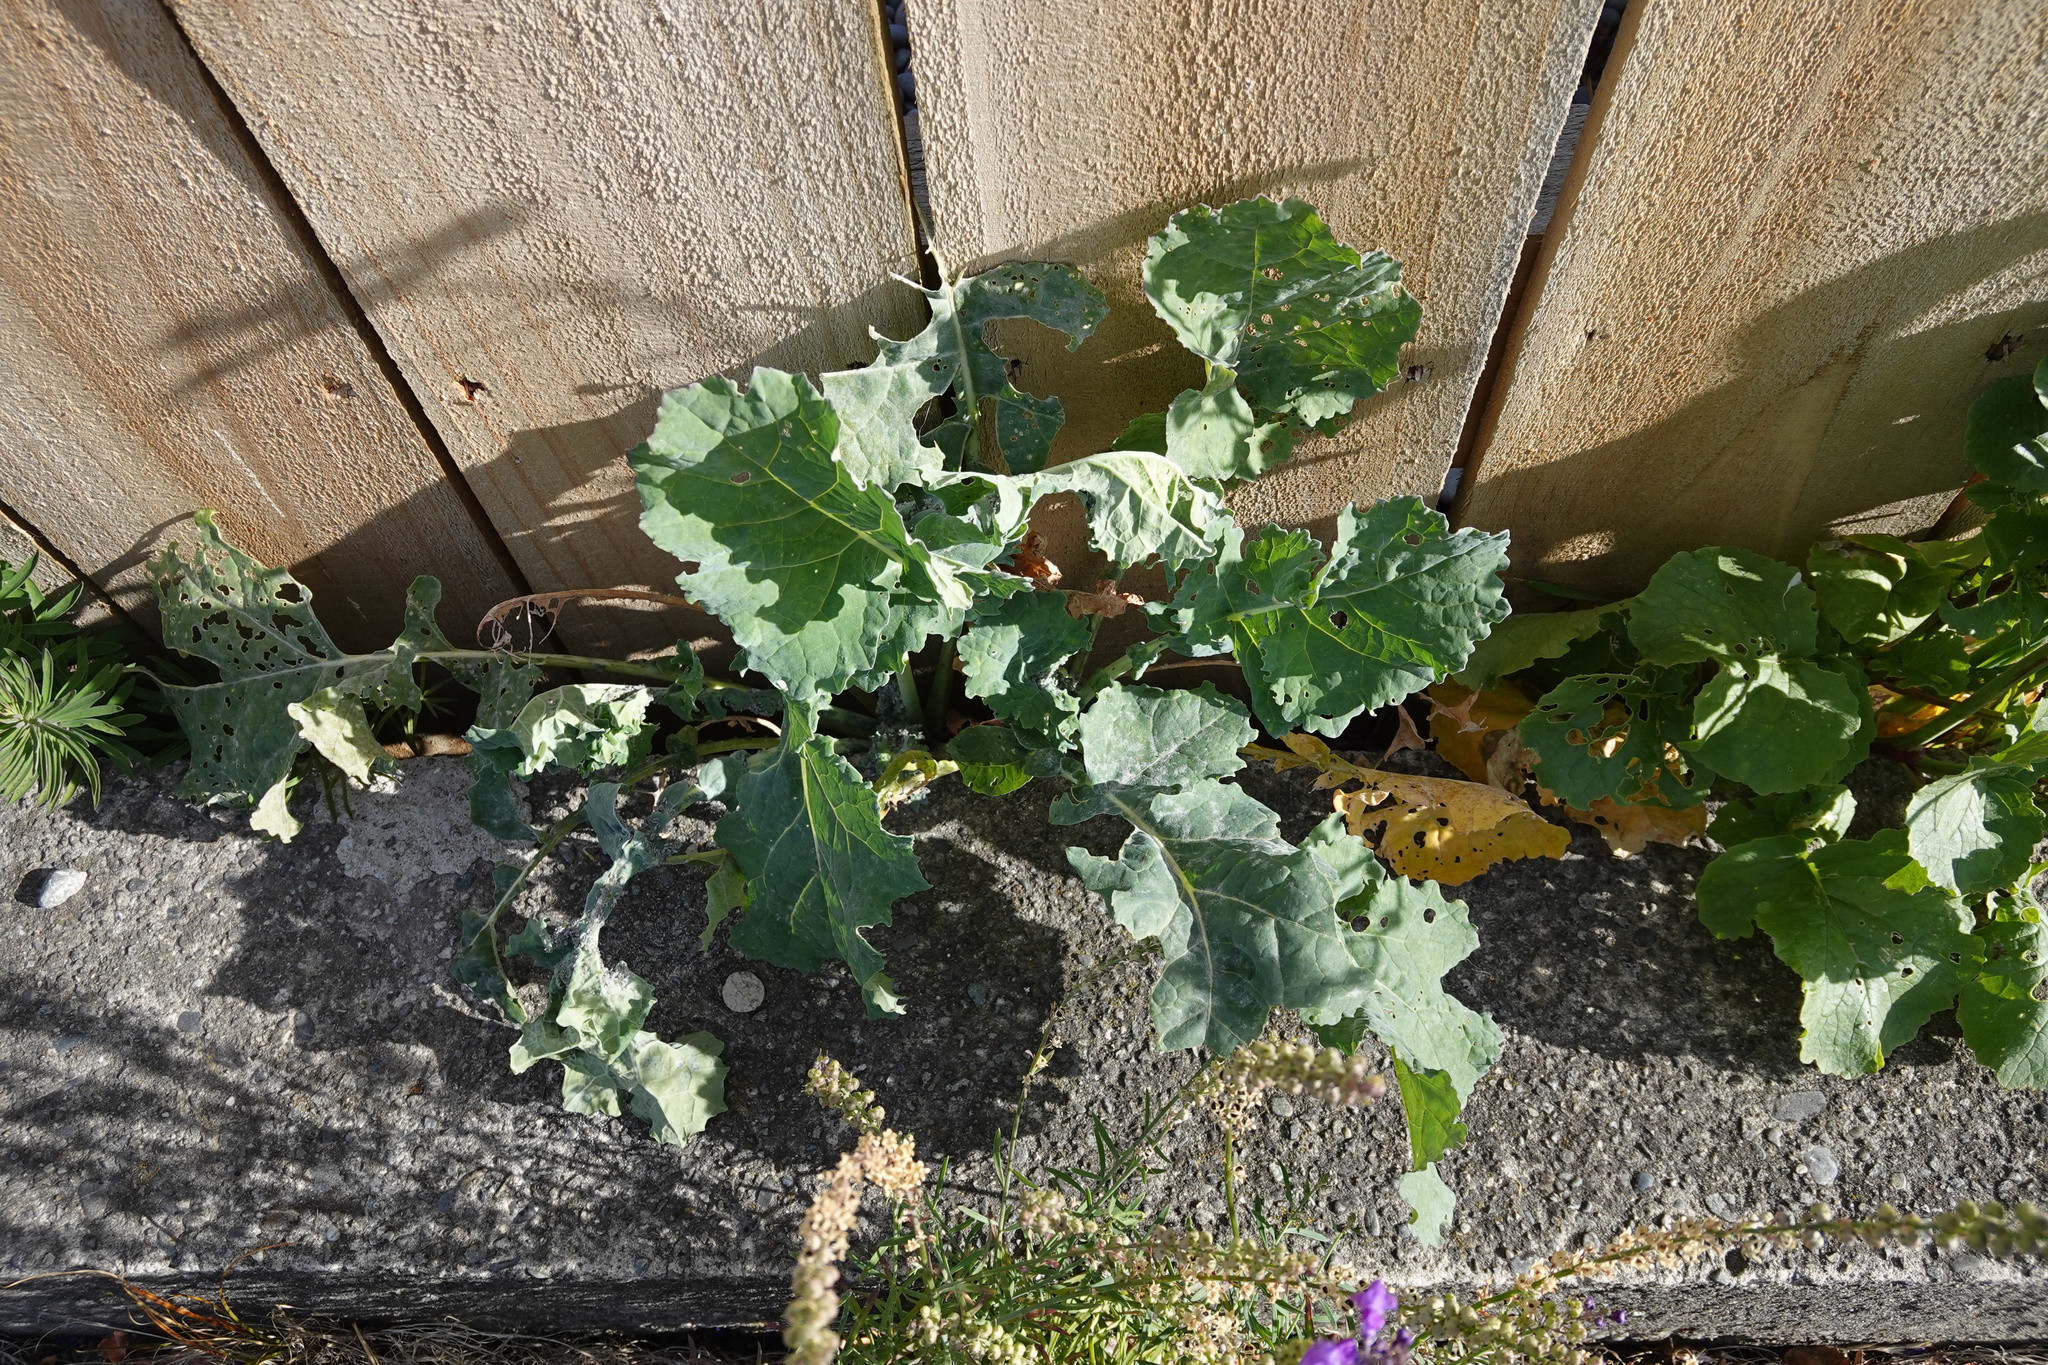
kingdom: Plantae
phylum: Tracheophyta
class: Magnoliopsida
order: Brassicales
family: Brassicaceae
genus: Brassica
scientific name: Brassica oleracea
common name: Cabbage
